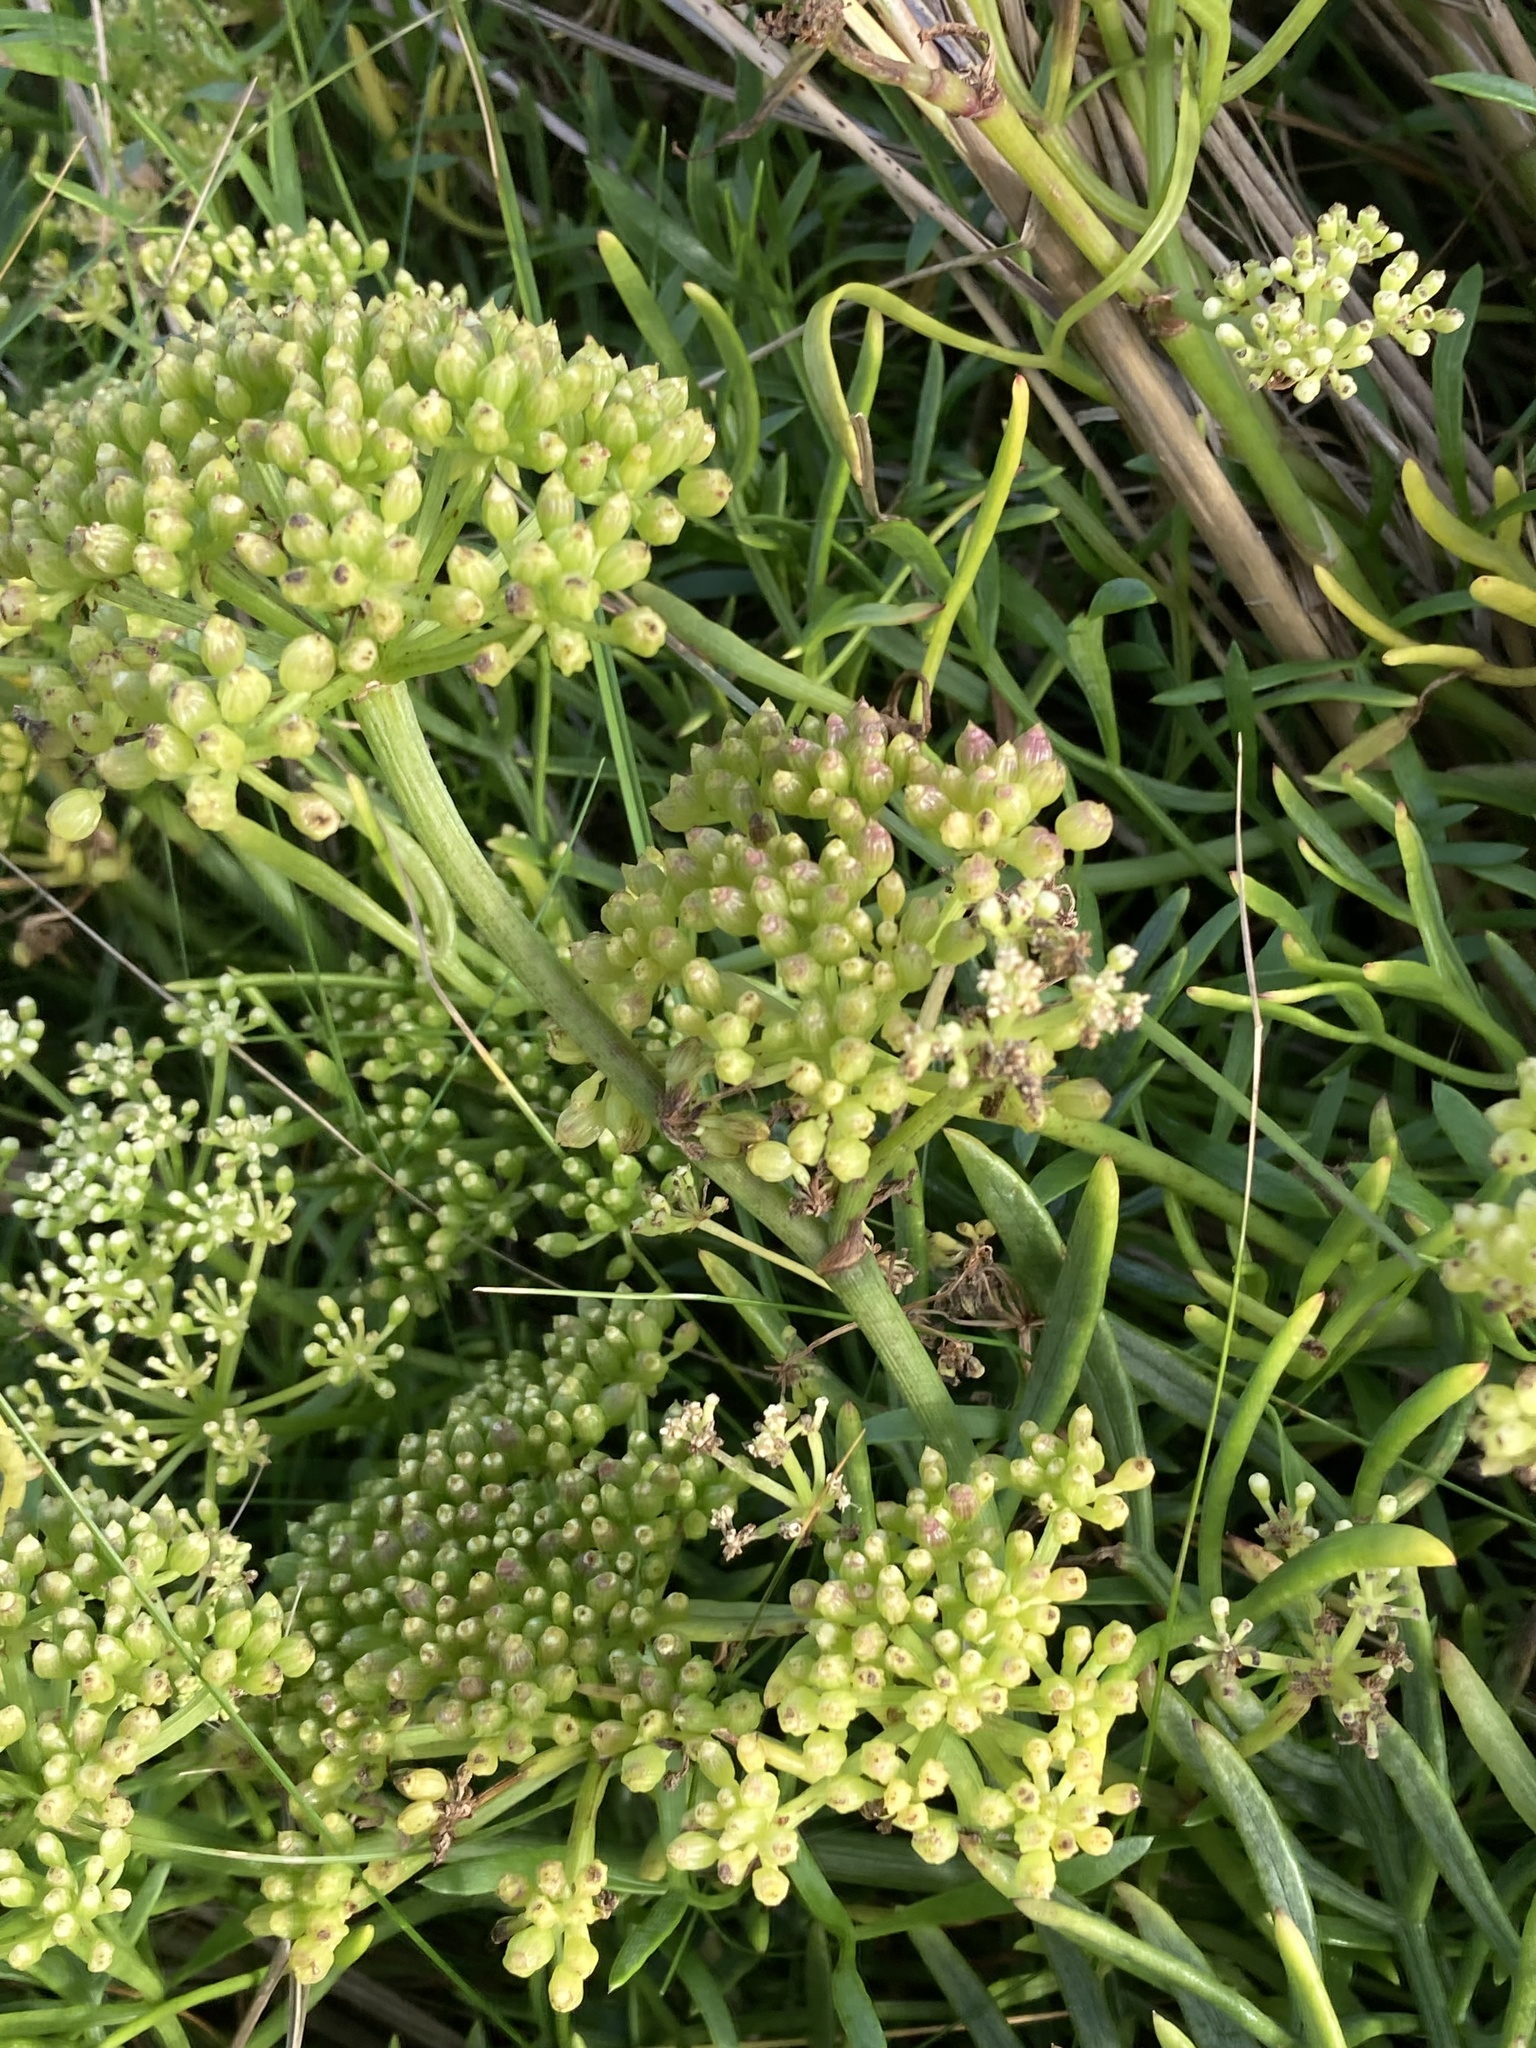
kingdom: Plantae
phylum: Tracheophyta
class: Magnoliopsida
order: Apiales
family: Apiaceae
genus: Crithmum
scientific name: Crithmum maritimum
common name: Rock samphire
